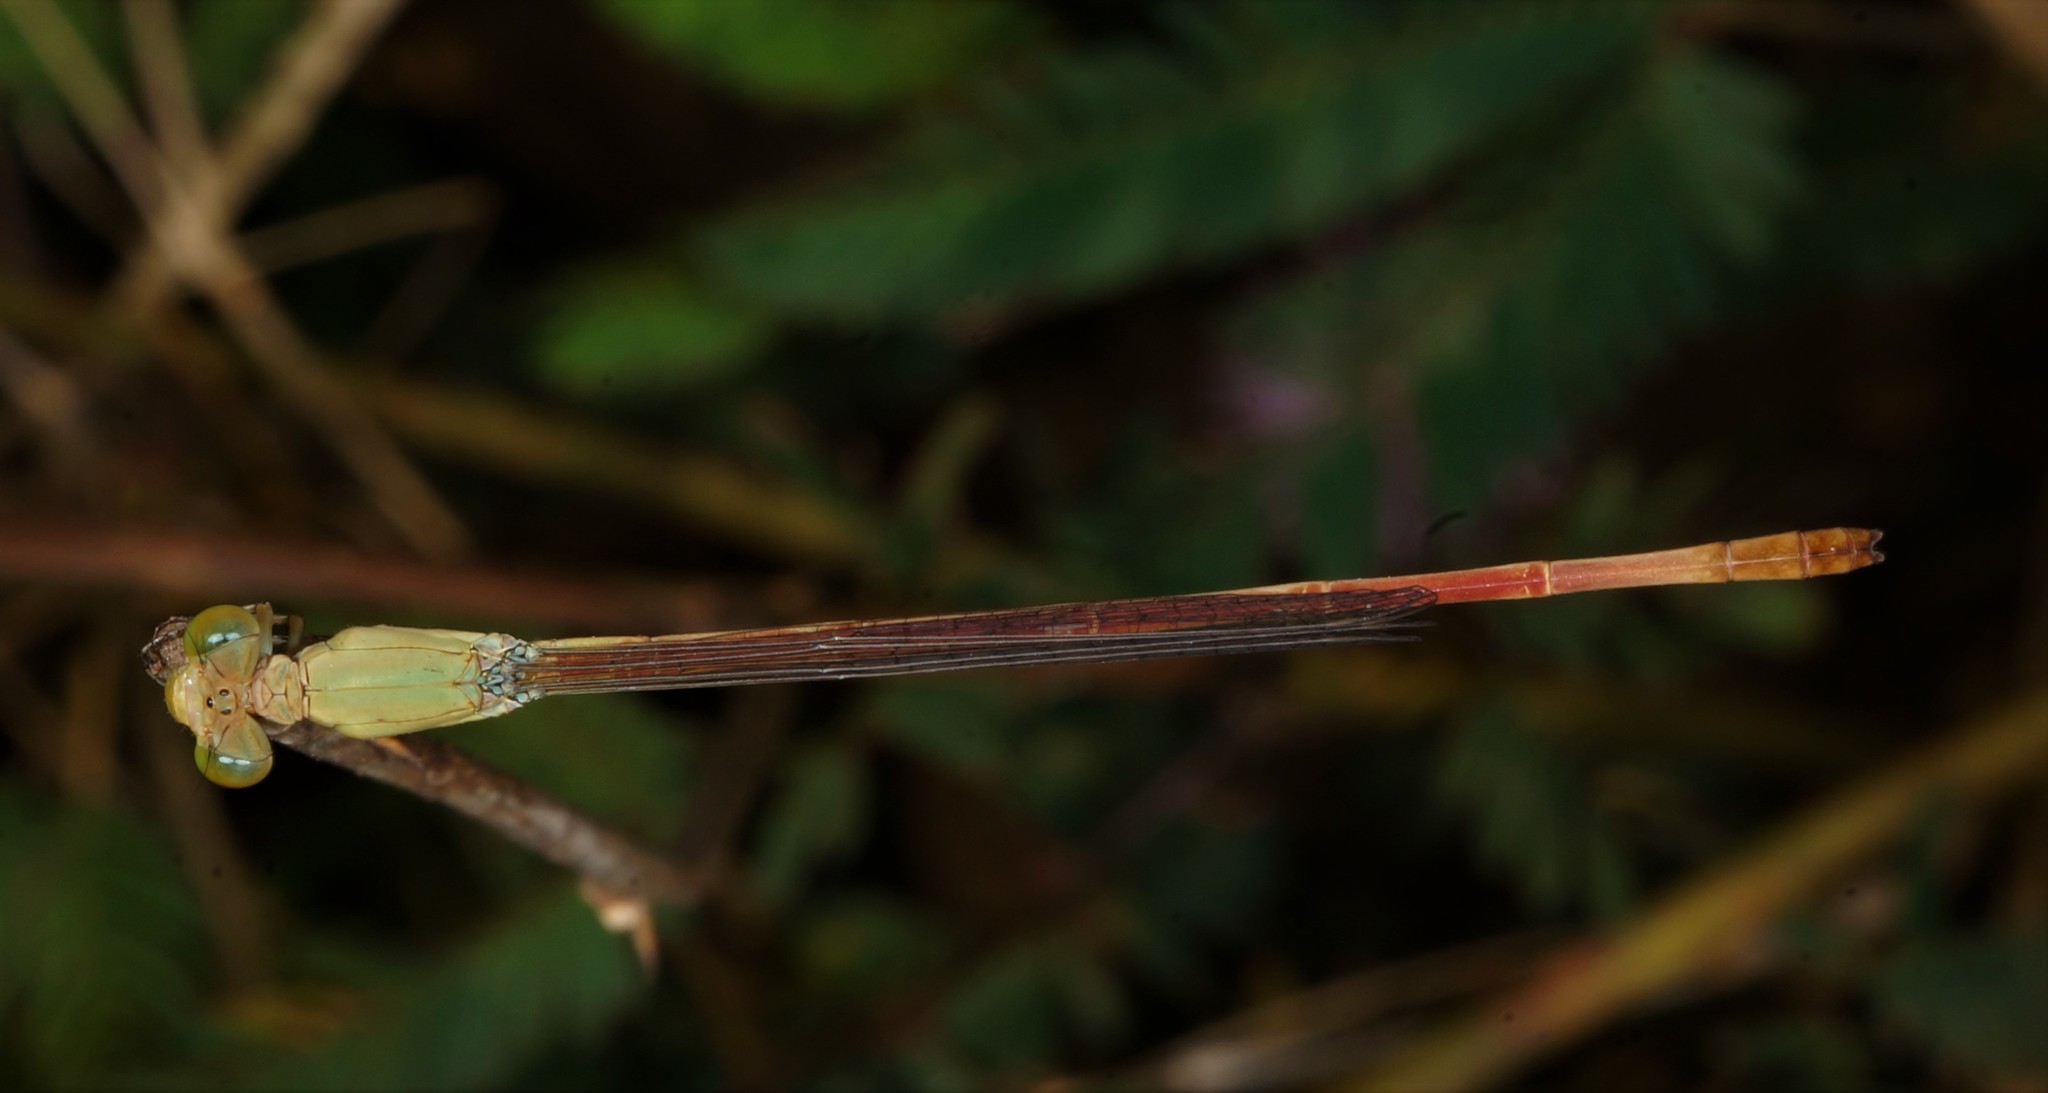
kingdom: Animalia
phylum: Arthropoda
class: Insecta
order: Odonata
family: Coenagrionidae
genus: Ceriagrion
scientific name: Ceriagrion olivaceum
